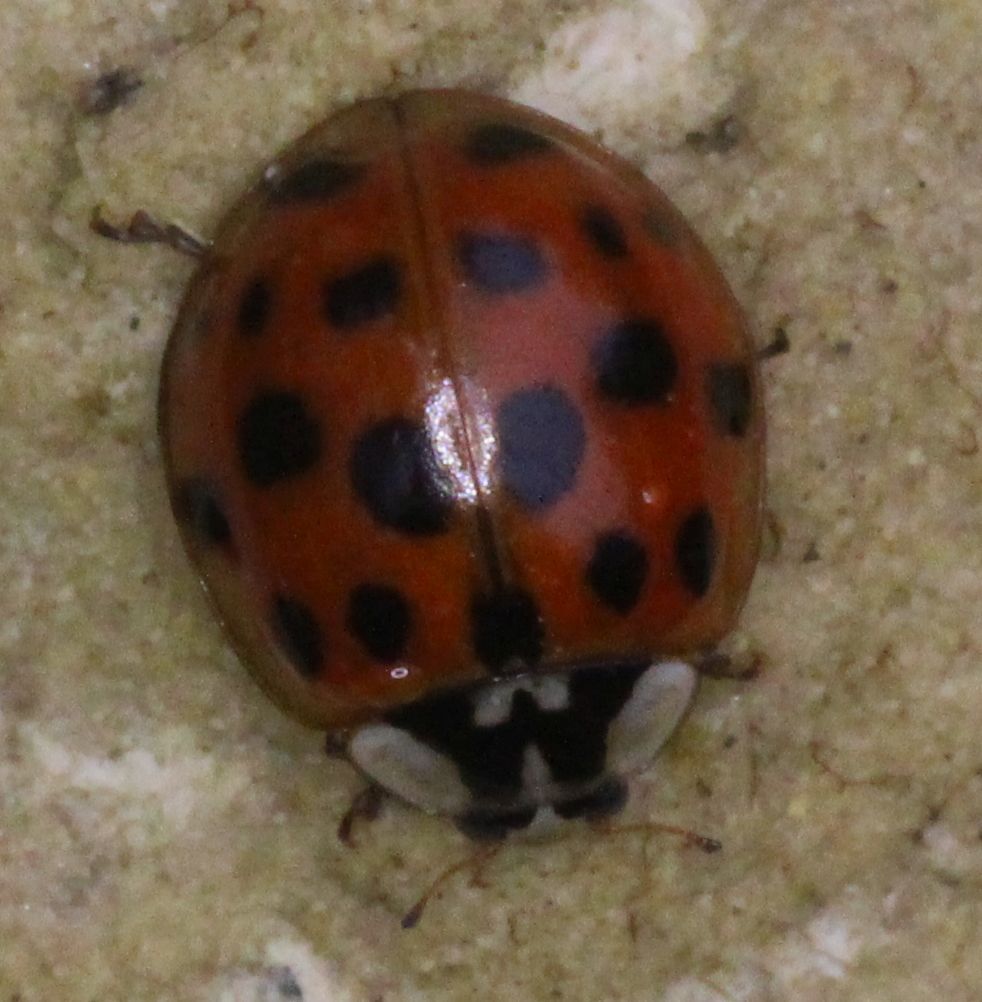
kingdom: Animalia
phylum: Arthropoda
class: Insecta
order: Coleoptera
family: Coccinellidae
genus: Harmonia
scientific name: Harmonia axyridis
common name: Harlequin ladybird
